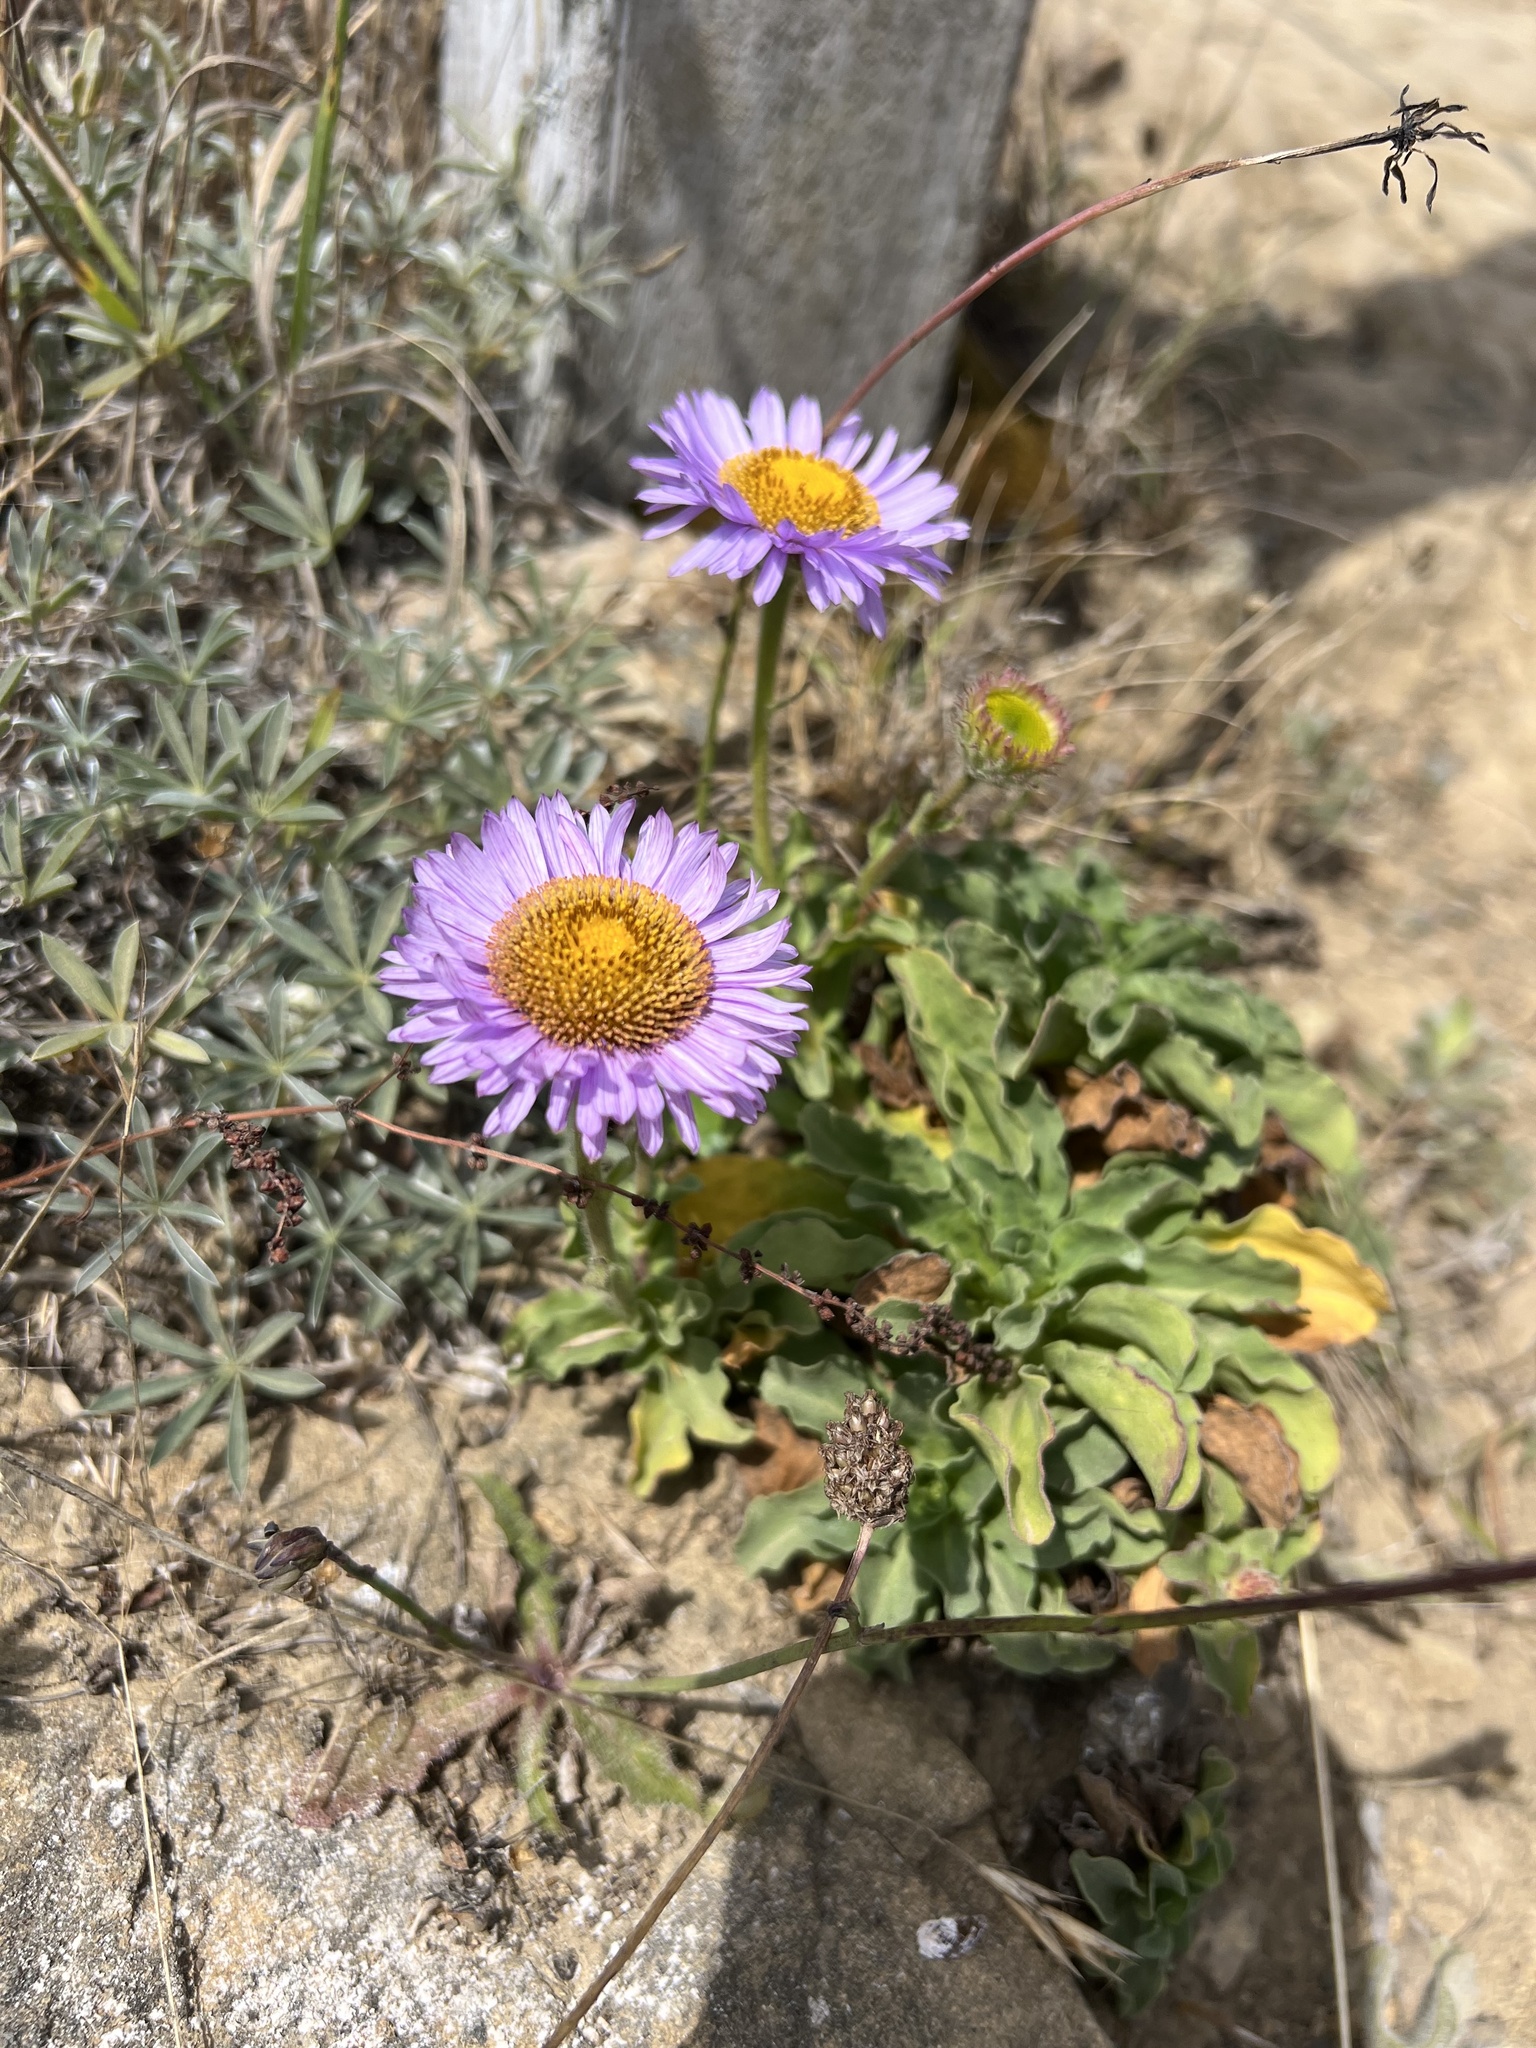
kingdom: Plantae
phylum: Tracheophyta
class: Magnoliopsida
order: Asterales
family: Asteraceae
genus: Erigeron
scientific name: Erigeron glaucus
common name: Seaside daisy
